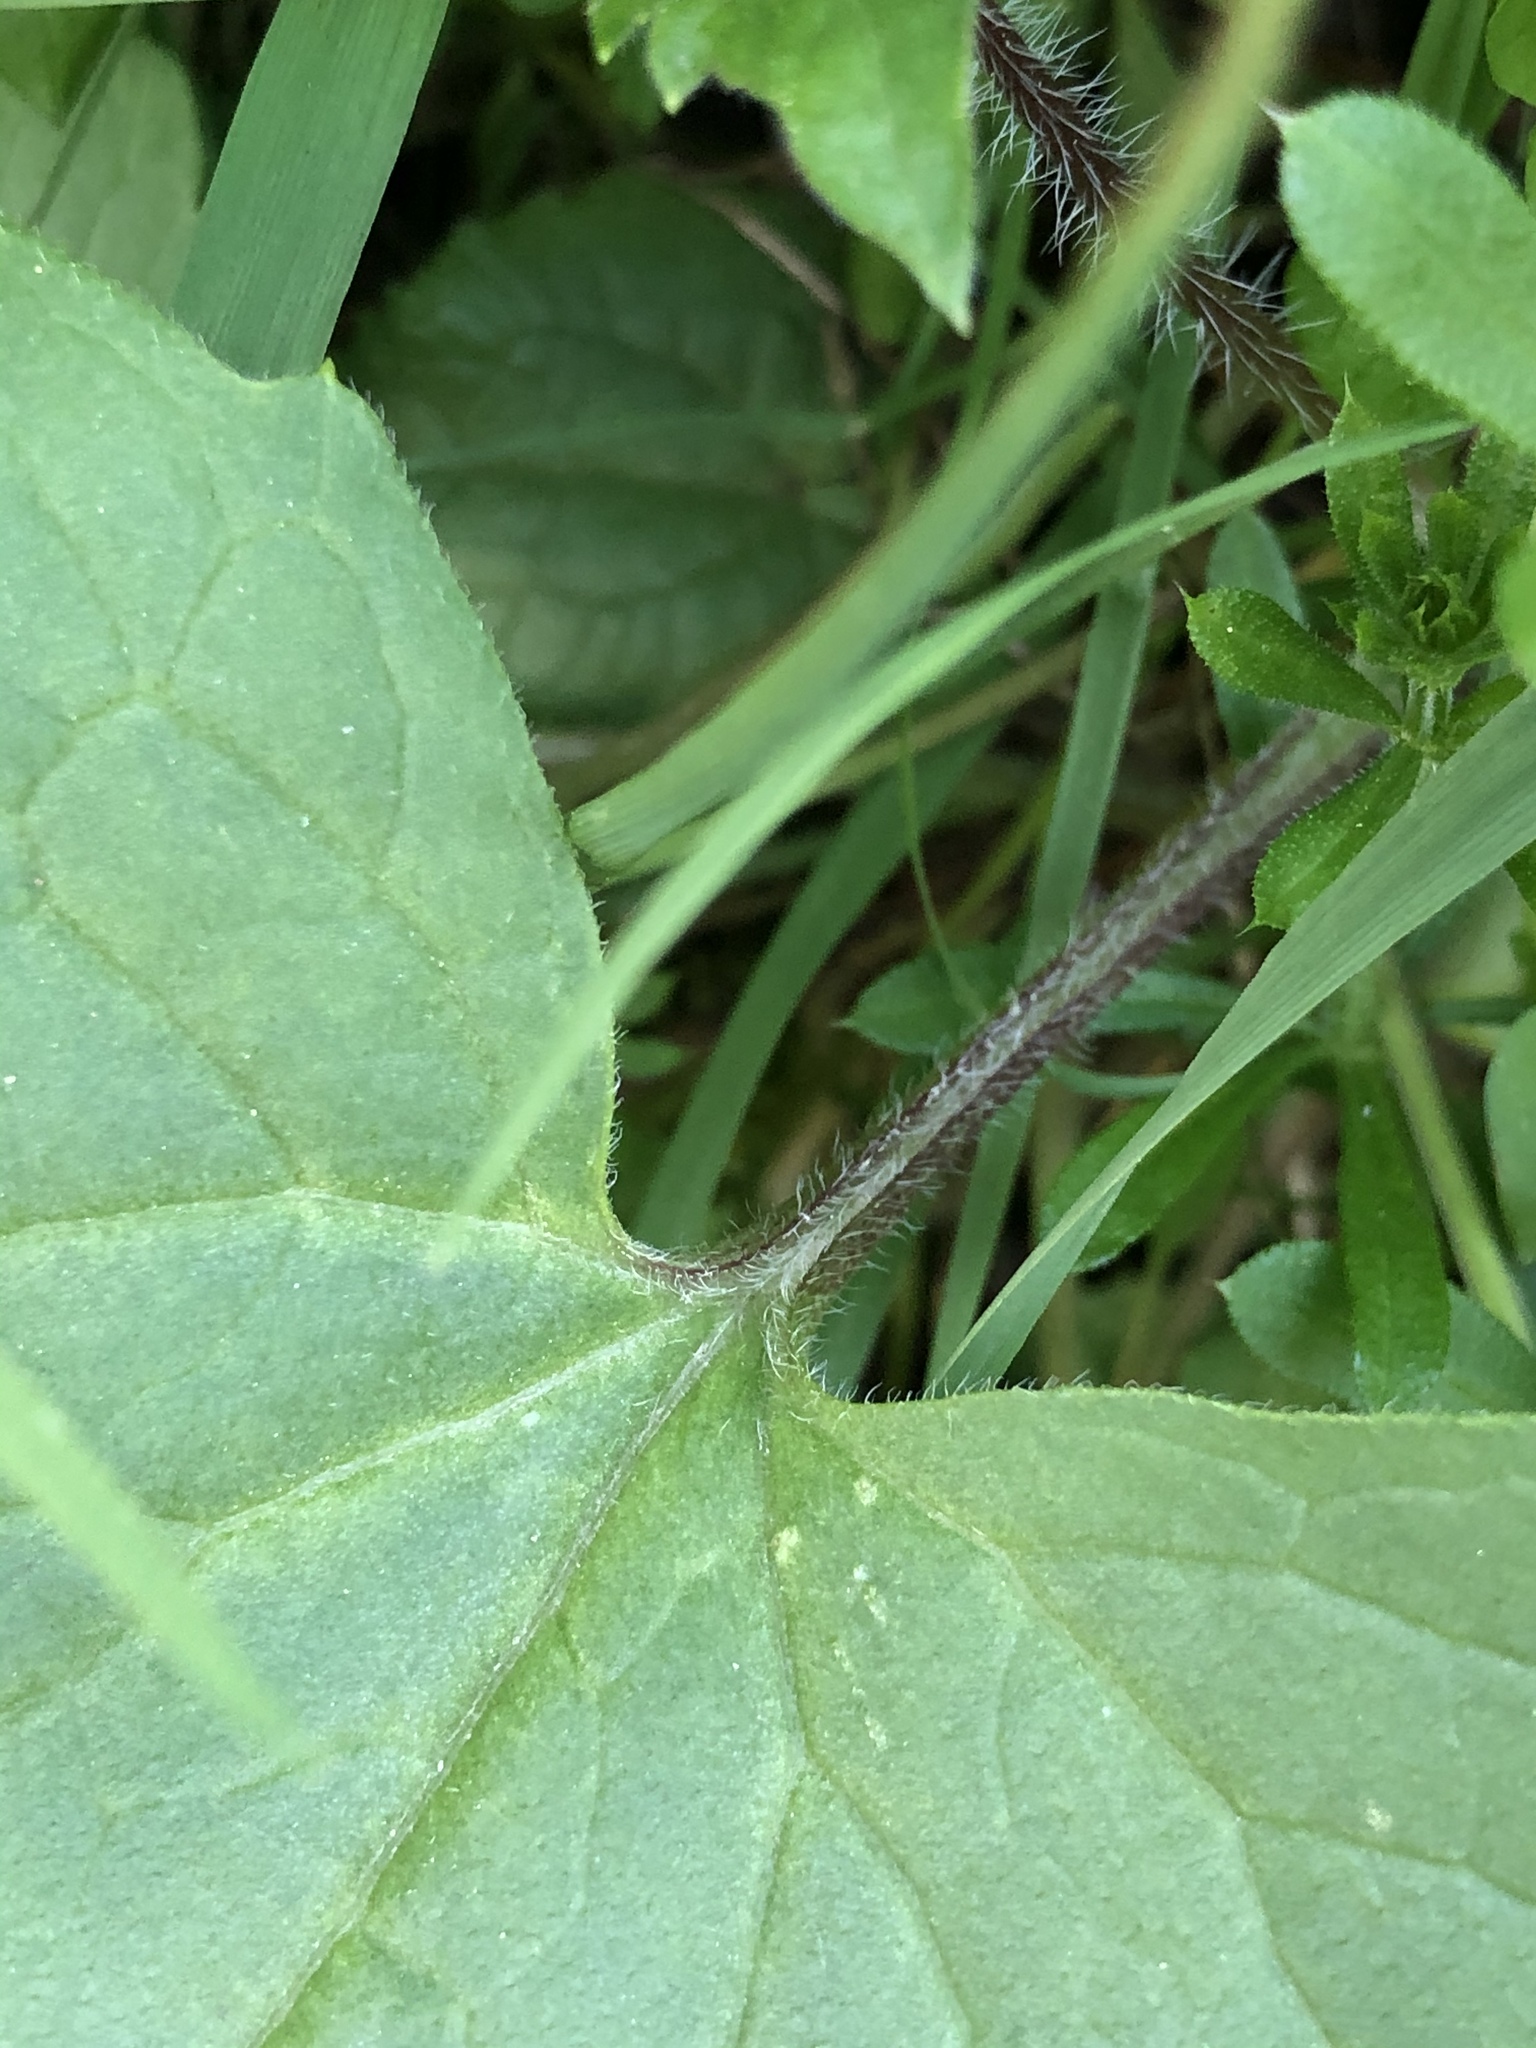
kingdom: Plantae
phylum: Tracheophyta
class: Magnoliopsida
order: Brassicales
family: Brassicaceae
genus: Lunaria
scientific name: Lunaria annua
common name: Honesty
